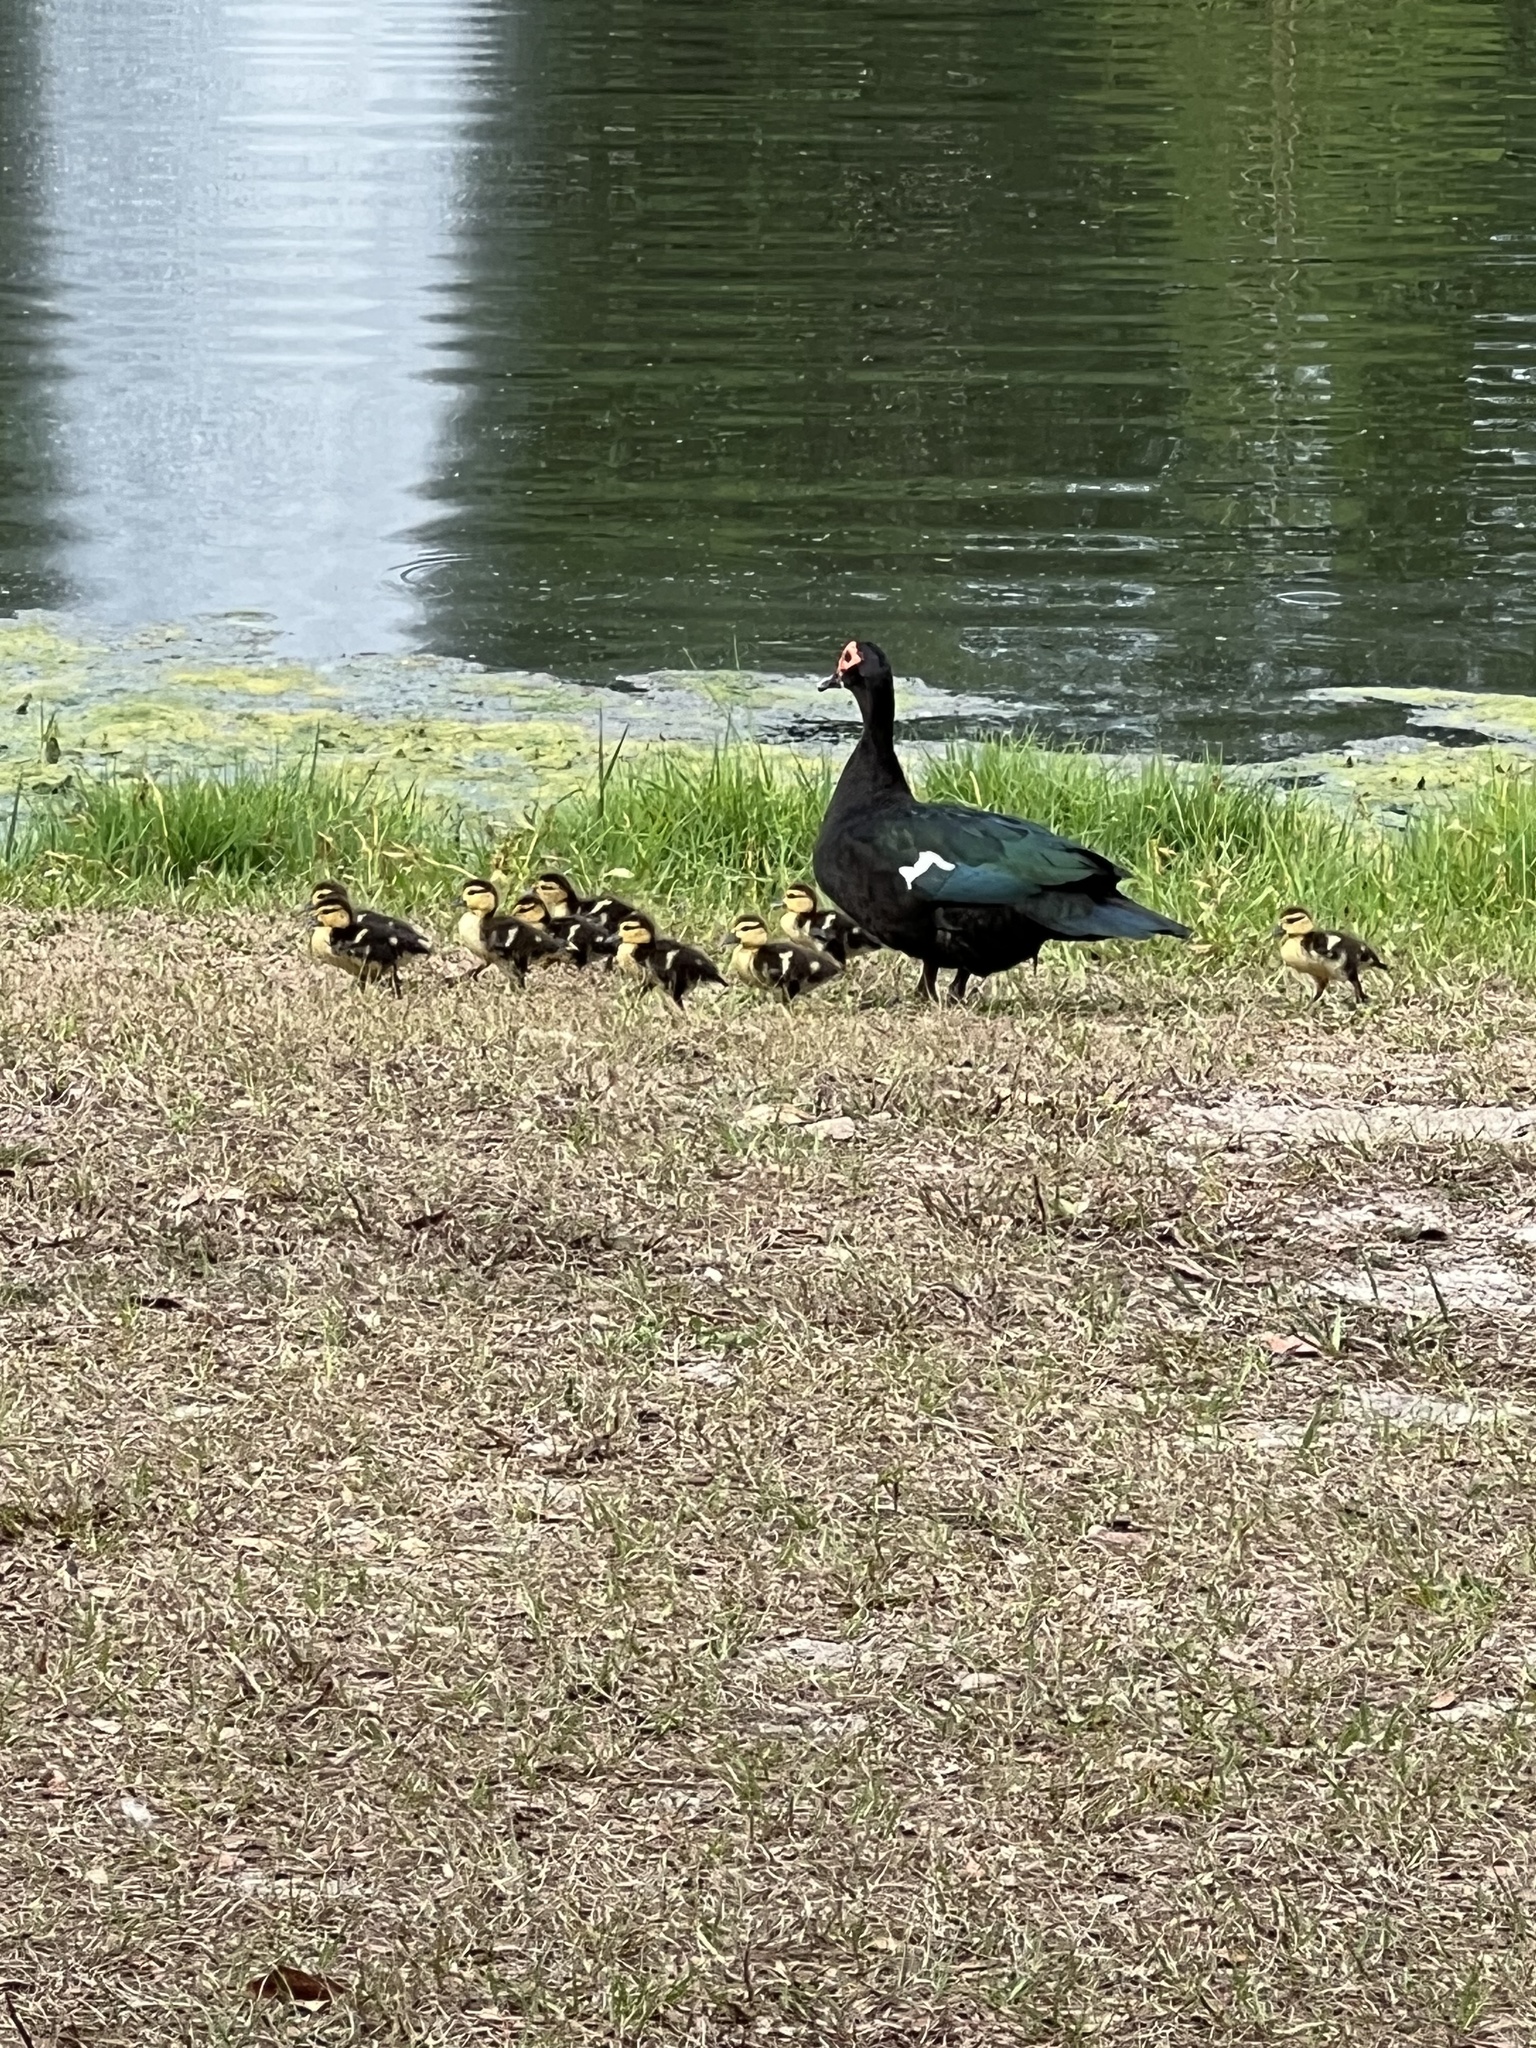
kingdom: Animalia
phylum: Chordata
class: Aves
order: Anseriformes
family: Anatidae
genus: Cairina
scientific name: Cairina moschata
